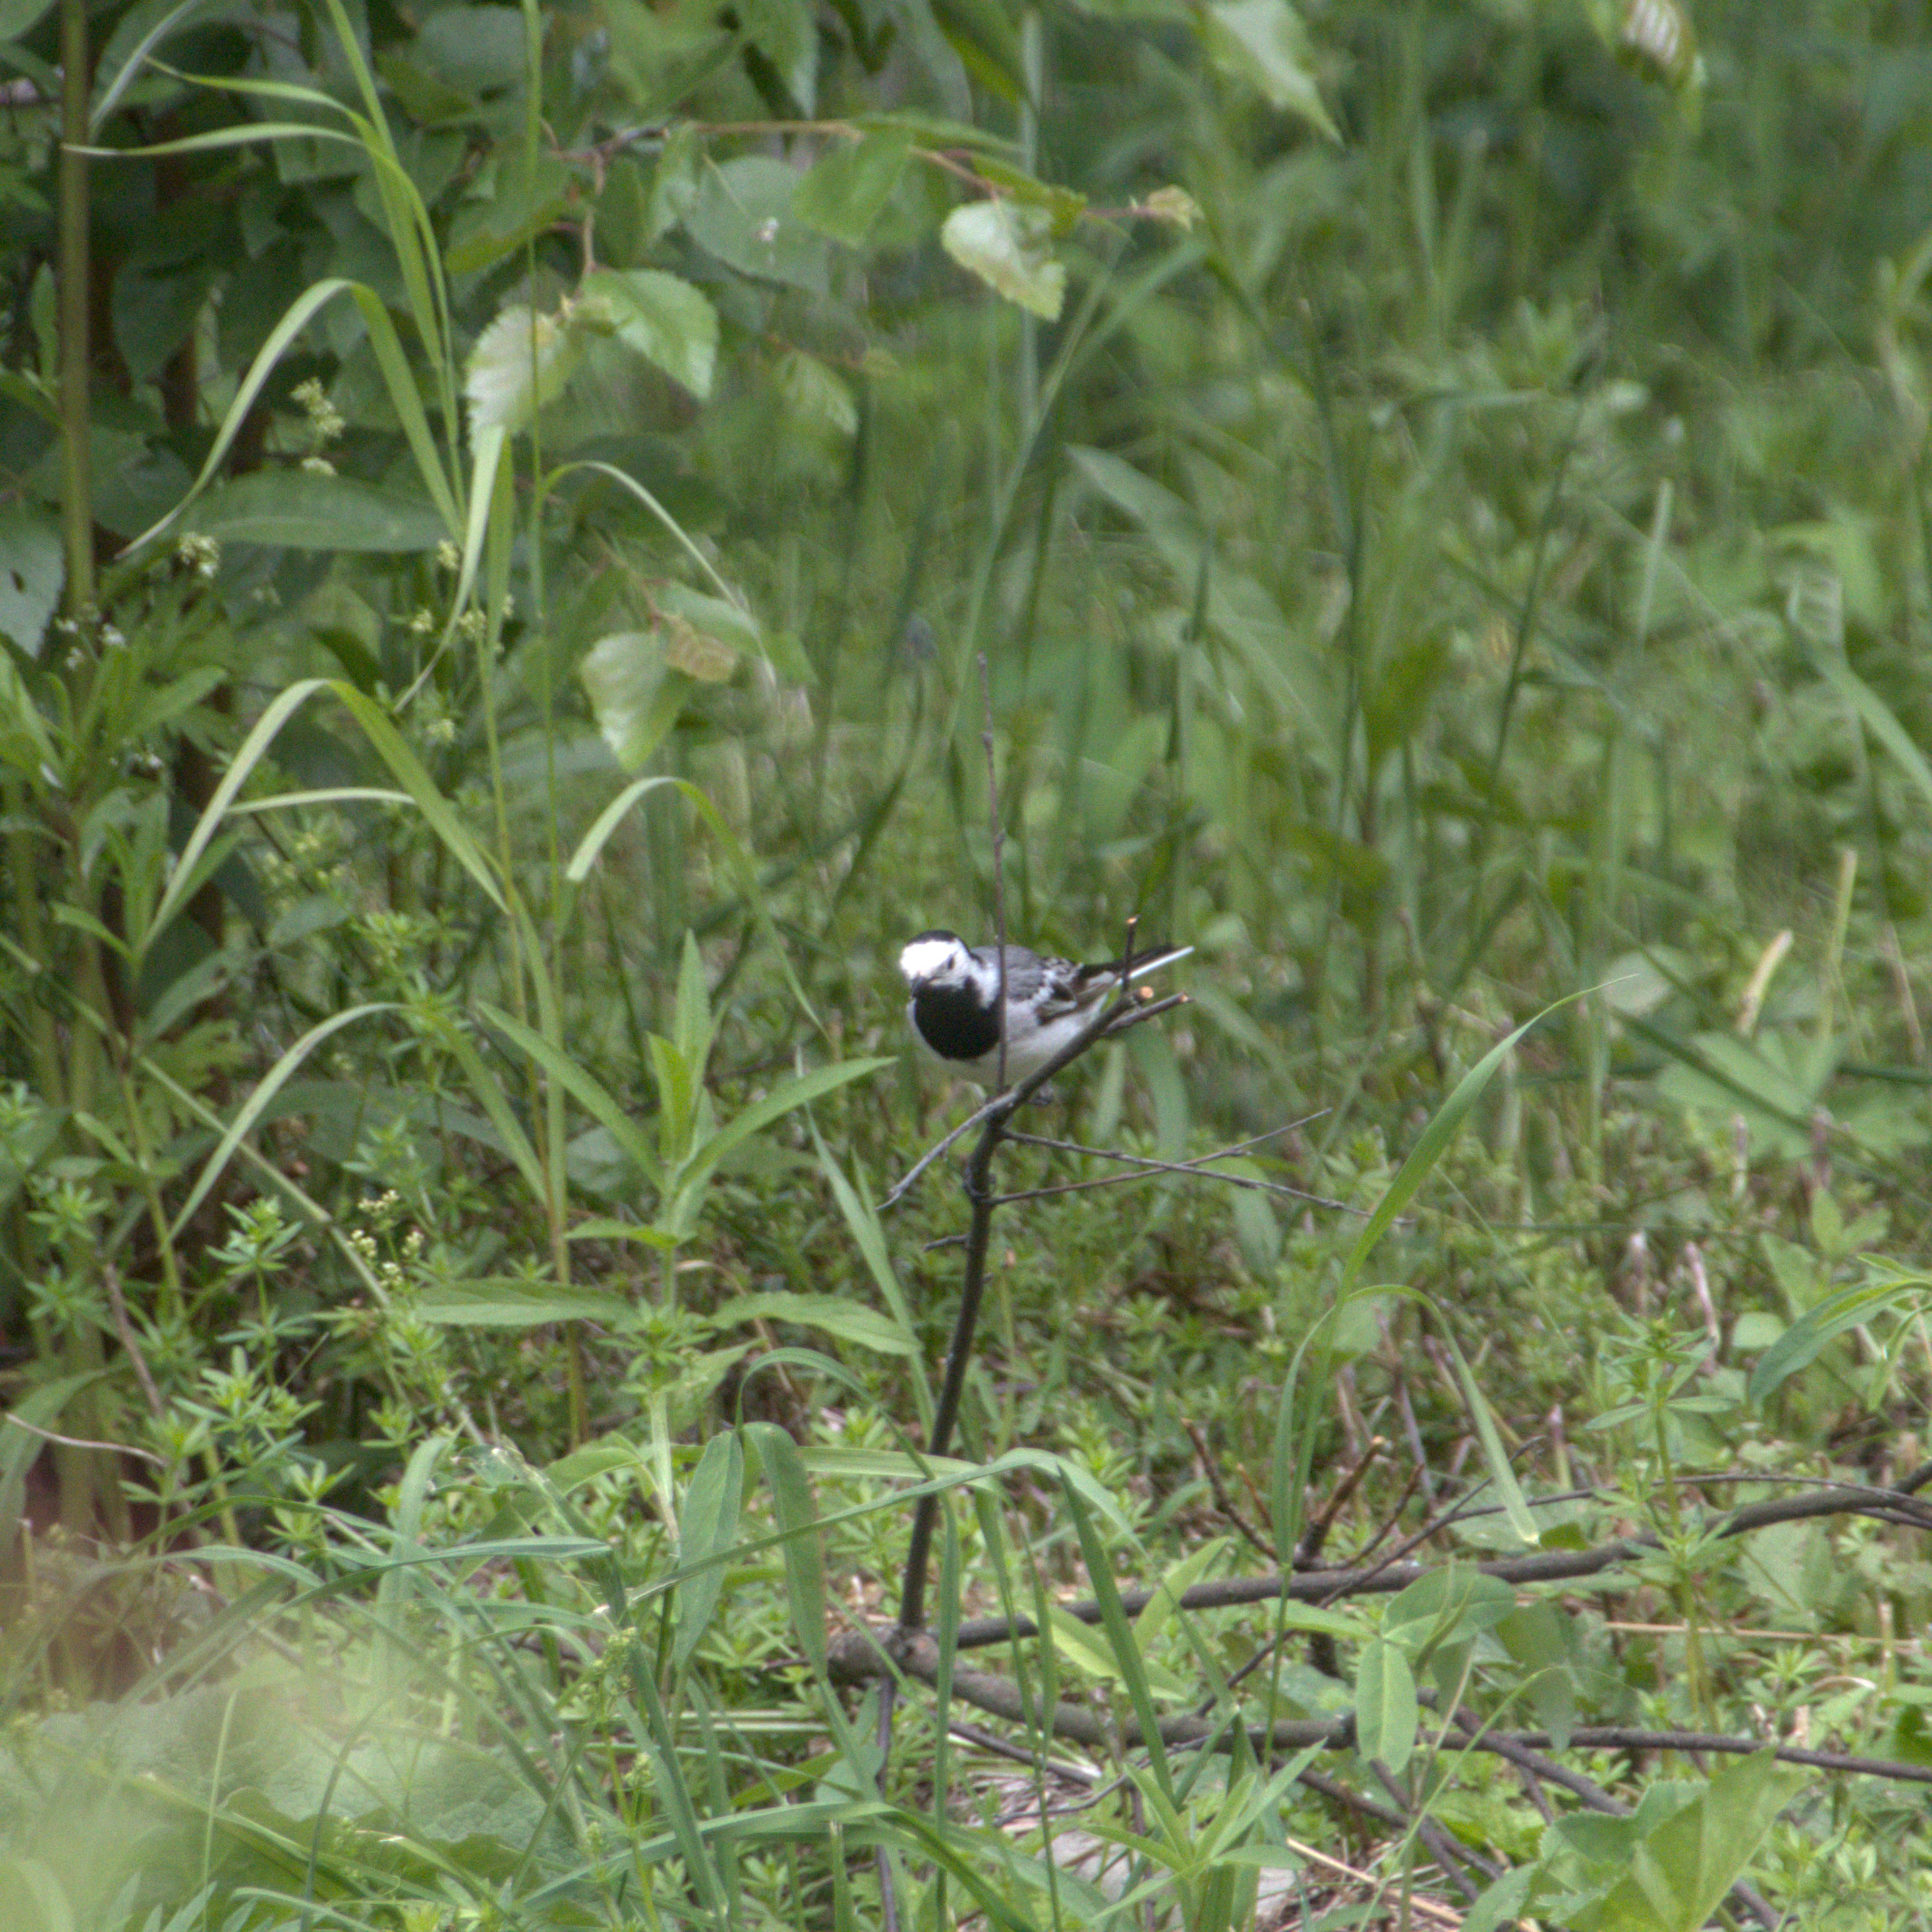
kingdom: Animalia
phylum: Chordata
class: Aves
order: Passeriformes
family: Motacillidae
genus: Motacilla
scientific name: Motacilla alba
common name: White wagtail
